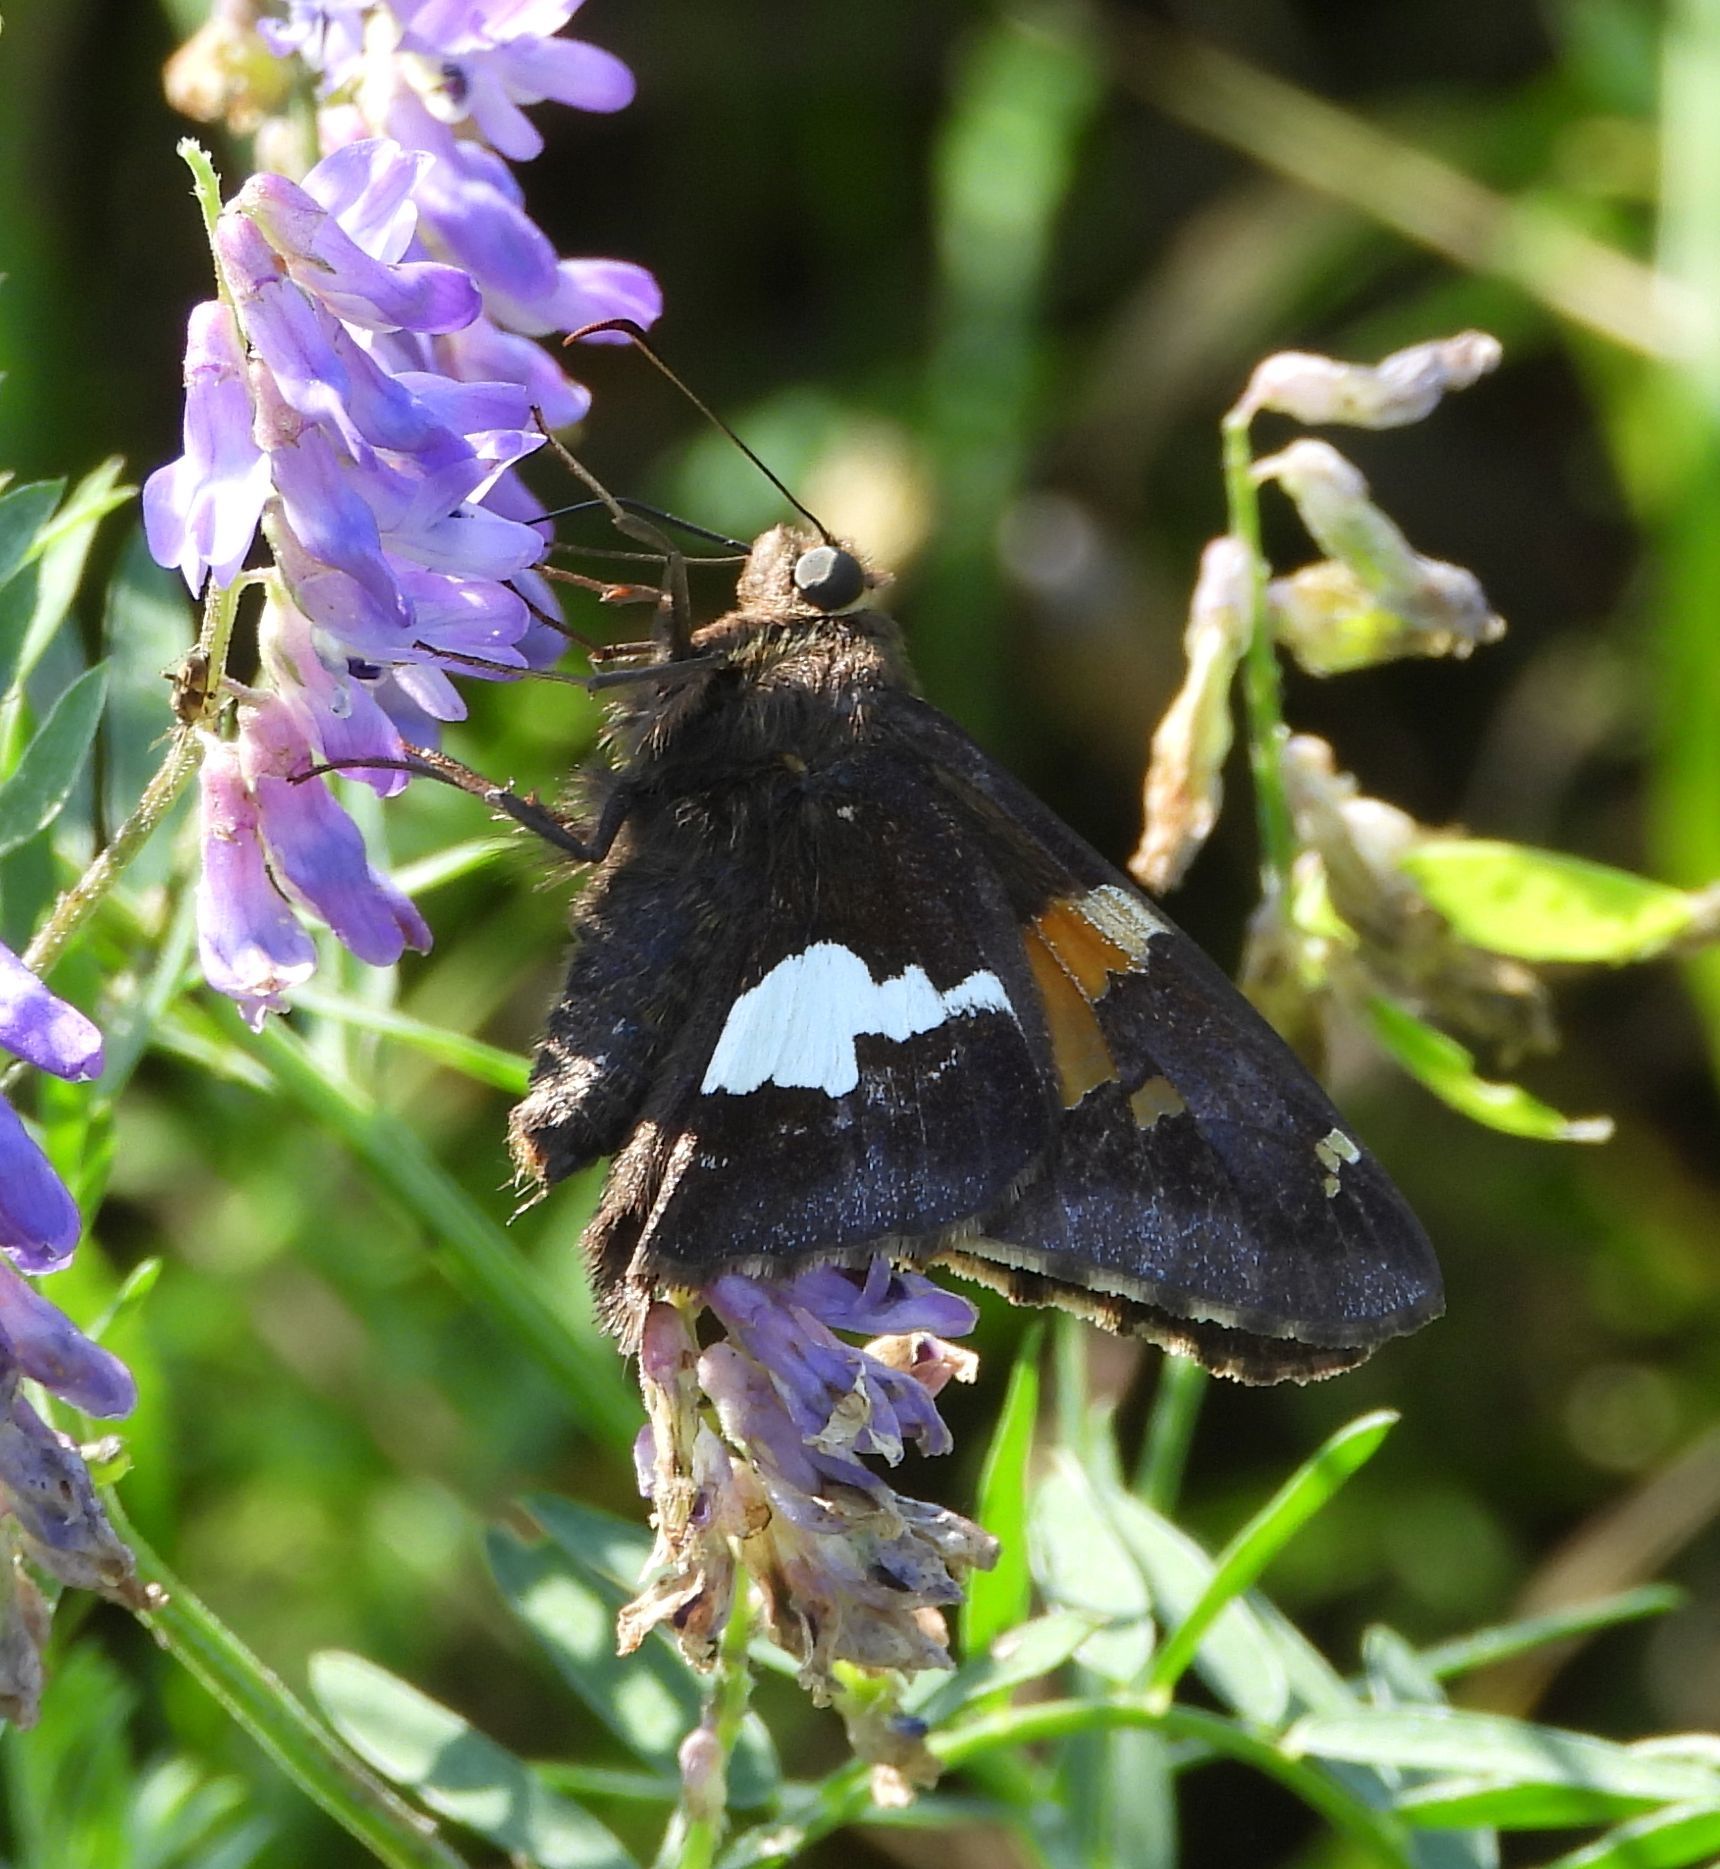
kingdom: Animalia
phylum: Arthropoda
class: Insecta
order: Lepidoptera
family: Hesperiidae
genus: Epargyreus
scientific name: Epargyreus clarus
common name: Silver-spotted skipper
